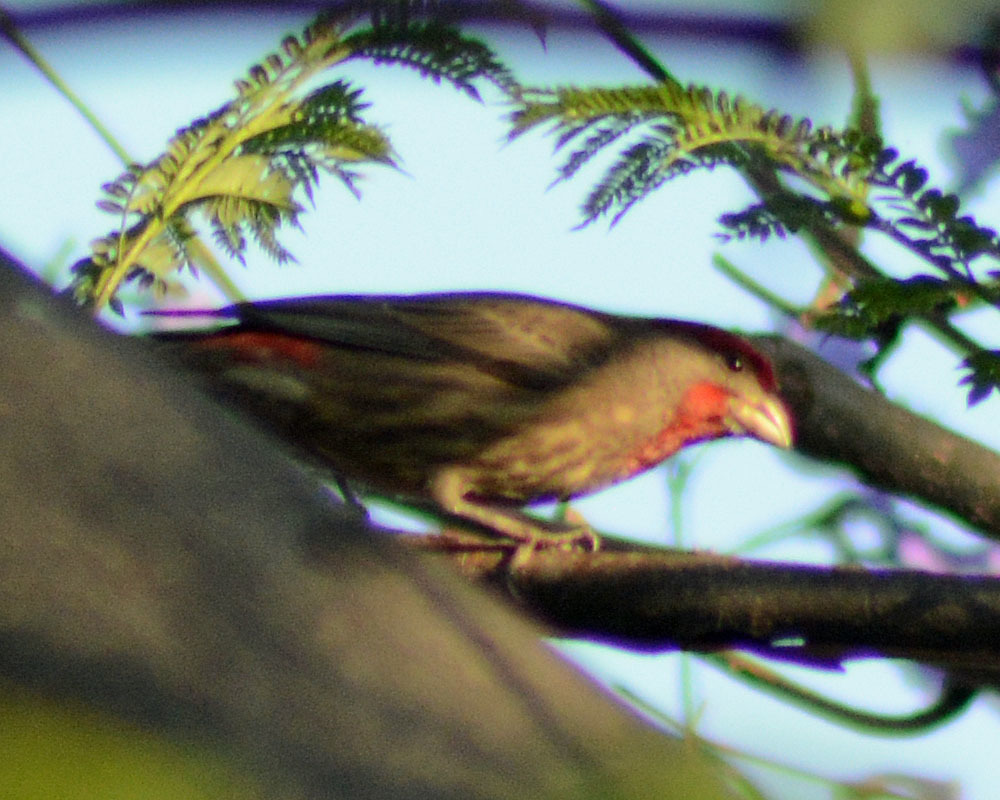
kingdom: Animalia
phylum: Chordata
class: Aves
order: Passeriformes
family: Fringillidae
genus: Haemorhous
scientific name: Haemorhous mexicanus
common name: House finch
